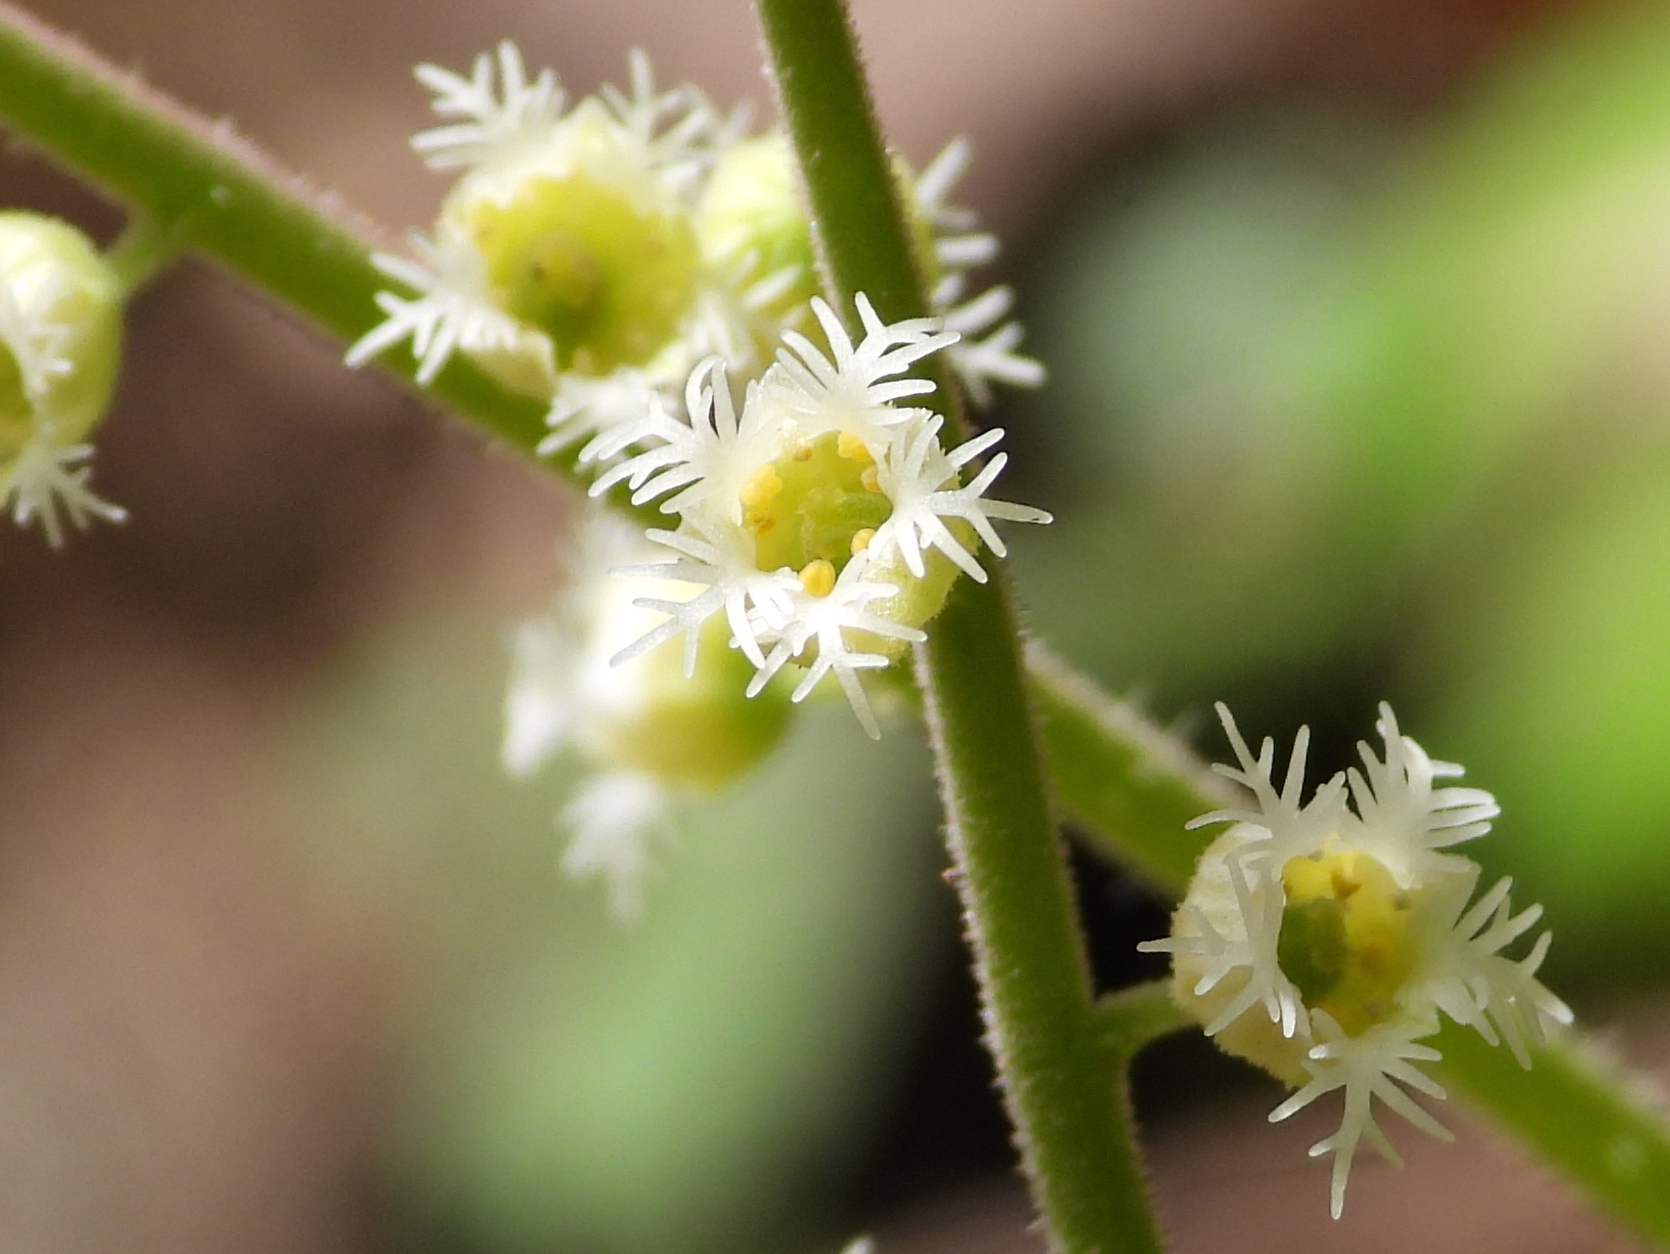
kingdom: Plantae
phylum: Tracheophyta
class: Magnoliopsida
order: Saxifragales
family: Saxifragaceae
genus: Mitella
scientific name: Mitella diphylla
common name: Coolwort
